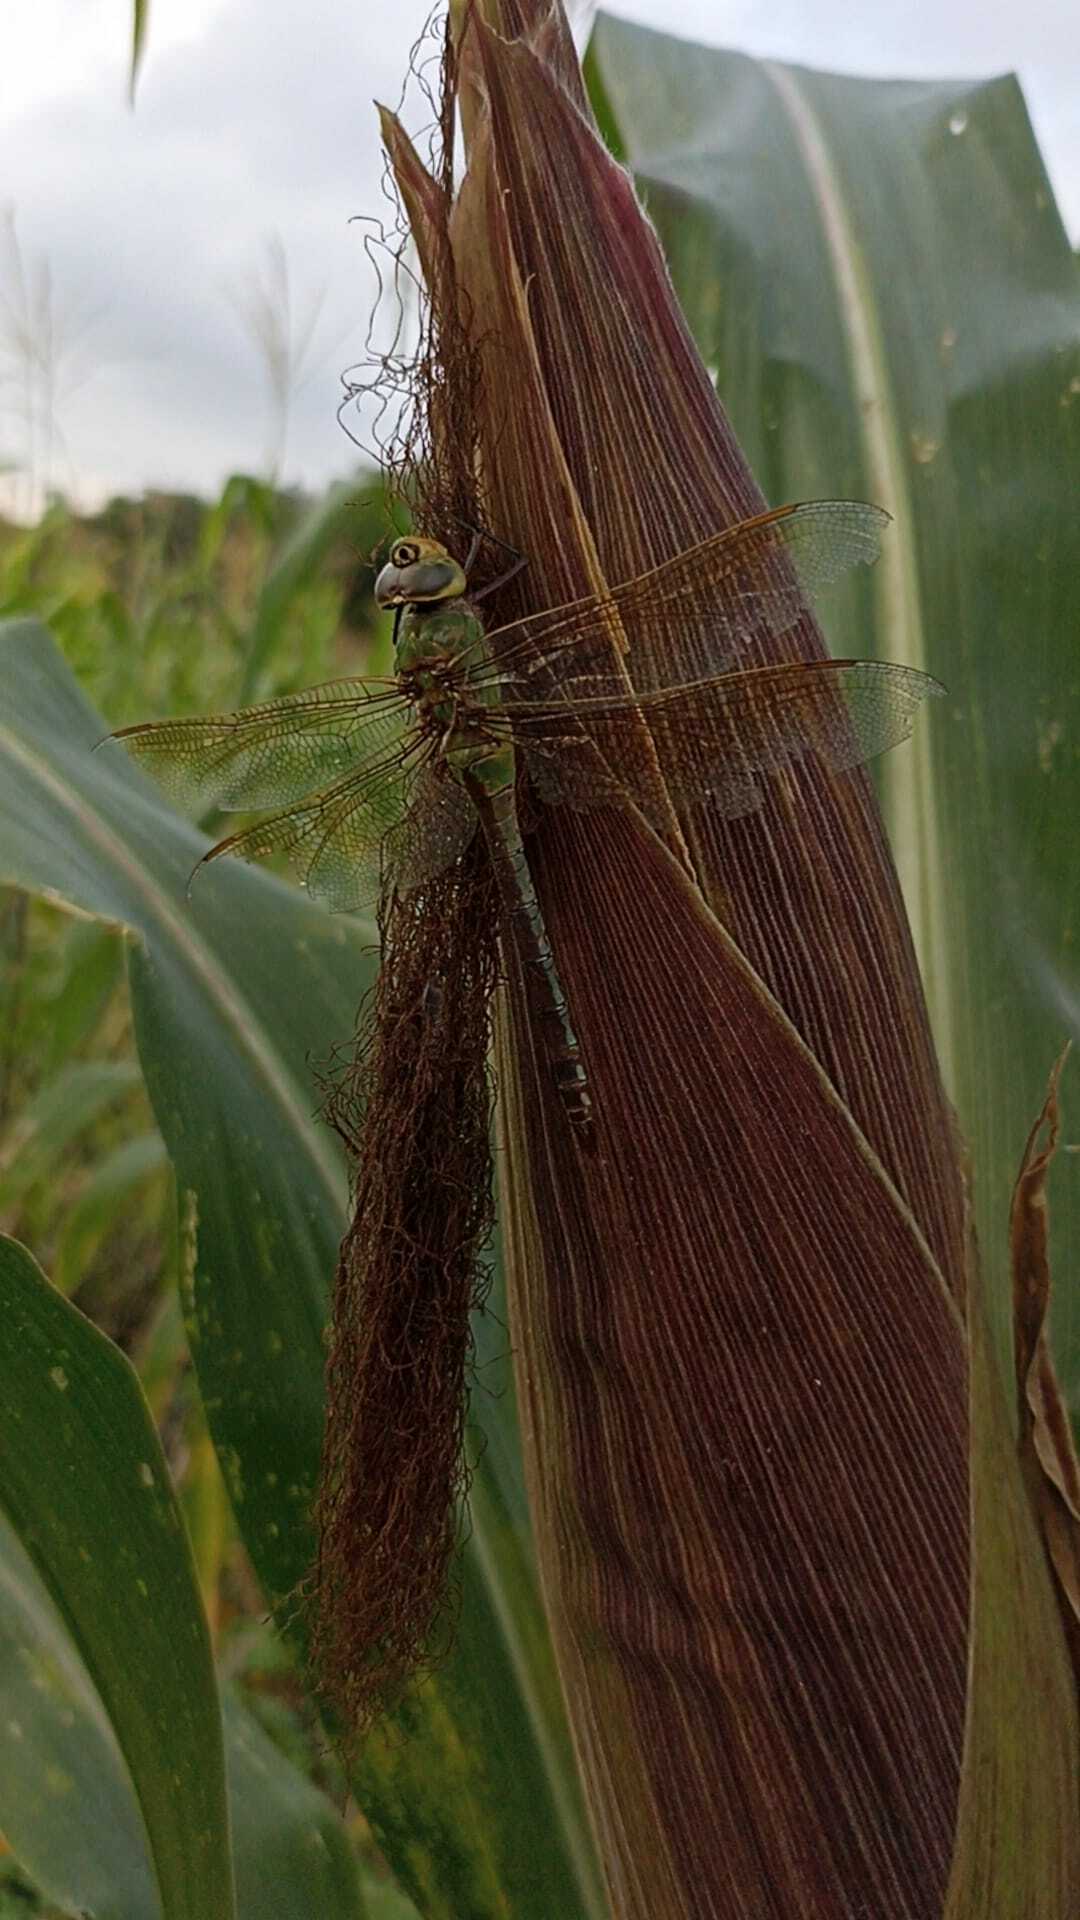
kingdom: Animalia
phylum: Arthropoda
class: Insecta
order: Odonata
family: Aeshnidae
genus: Anax
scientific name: Anax junius
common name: Common green darner
